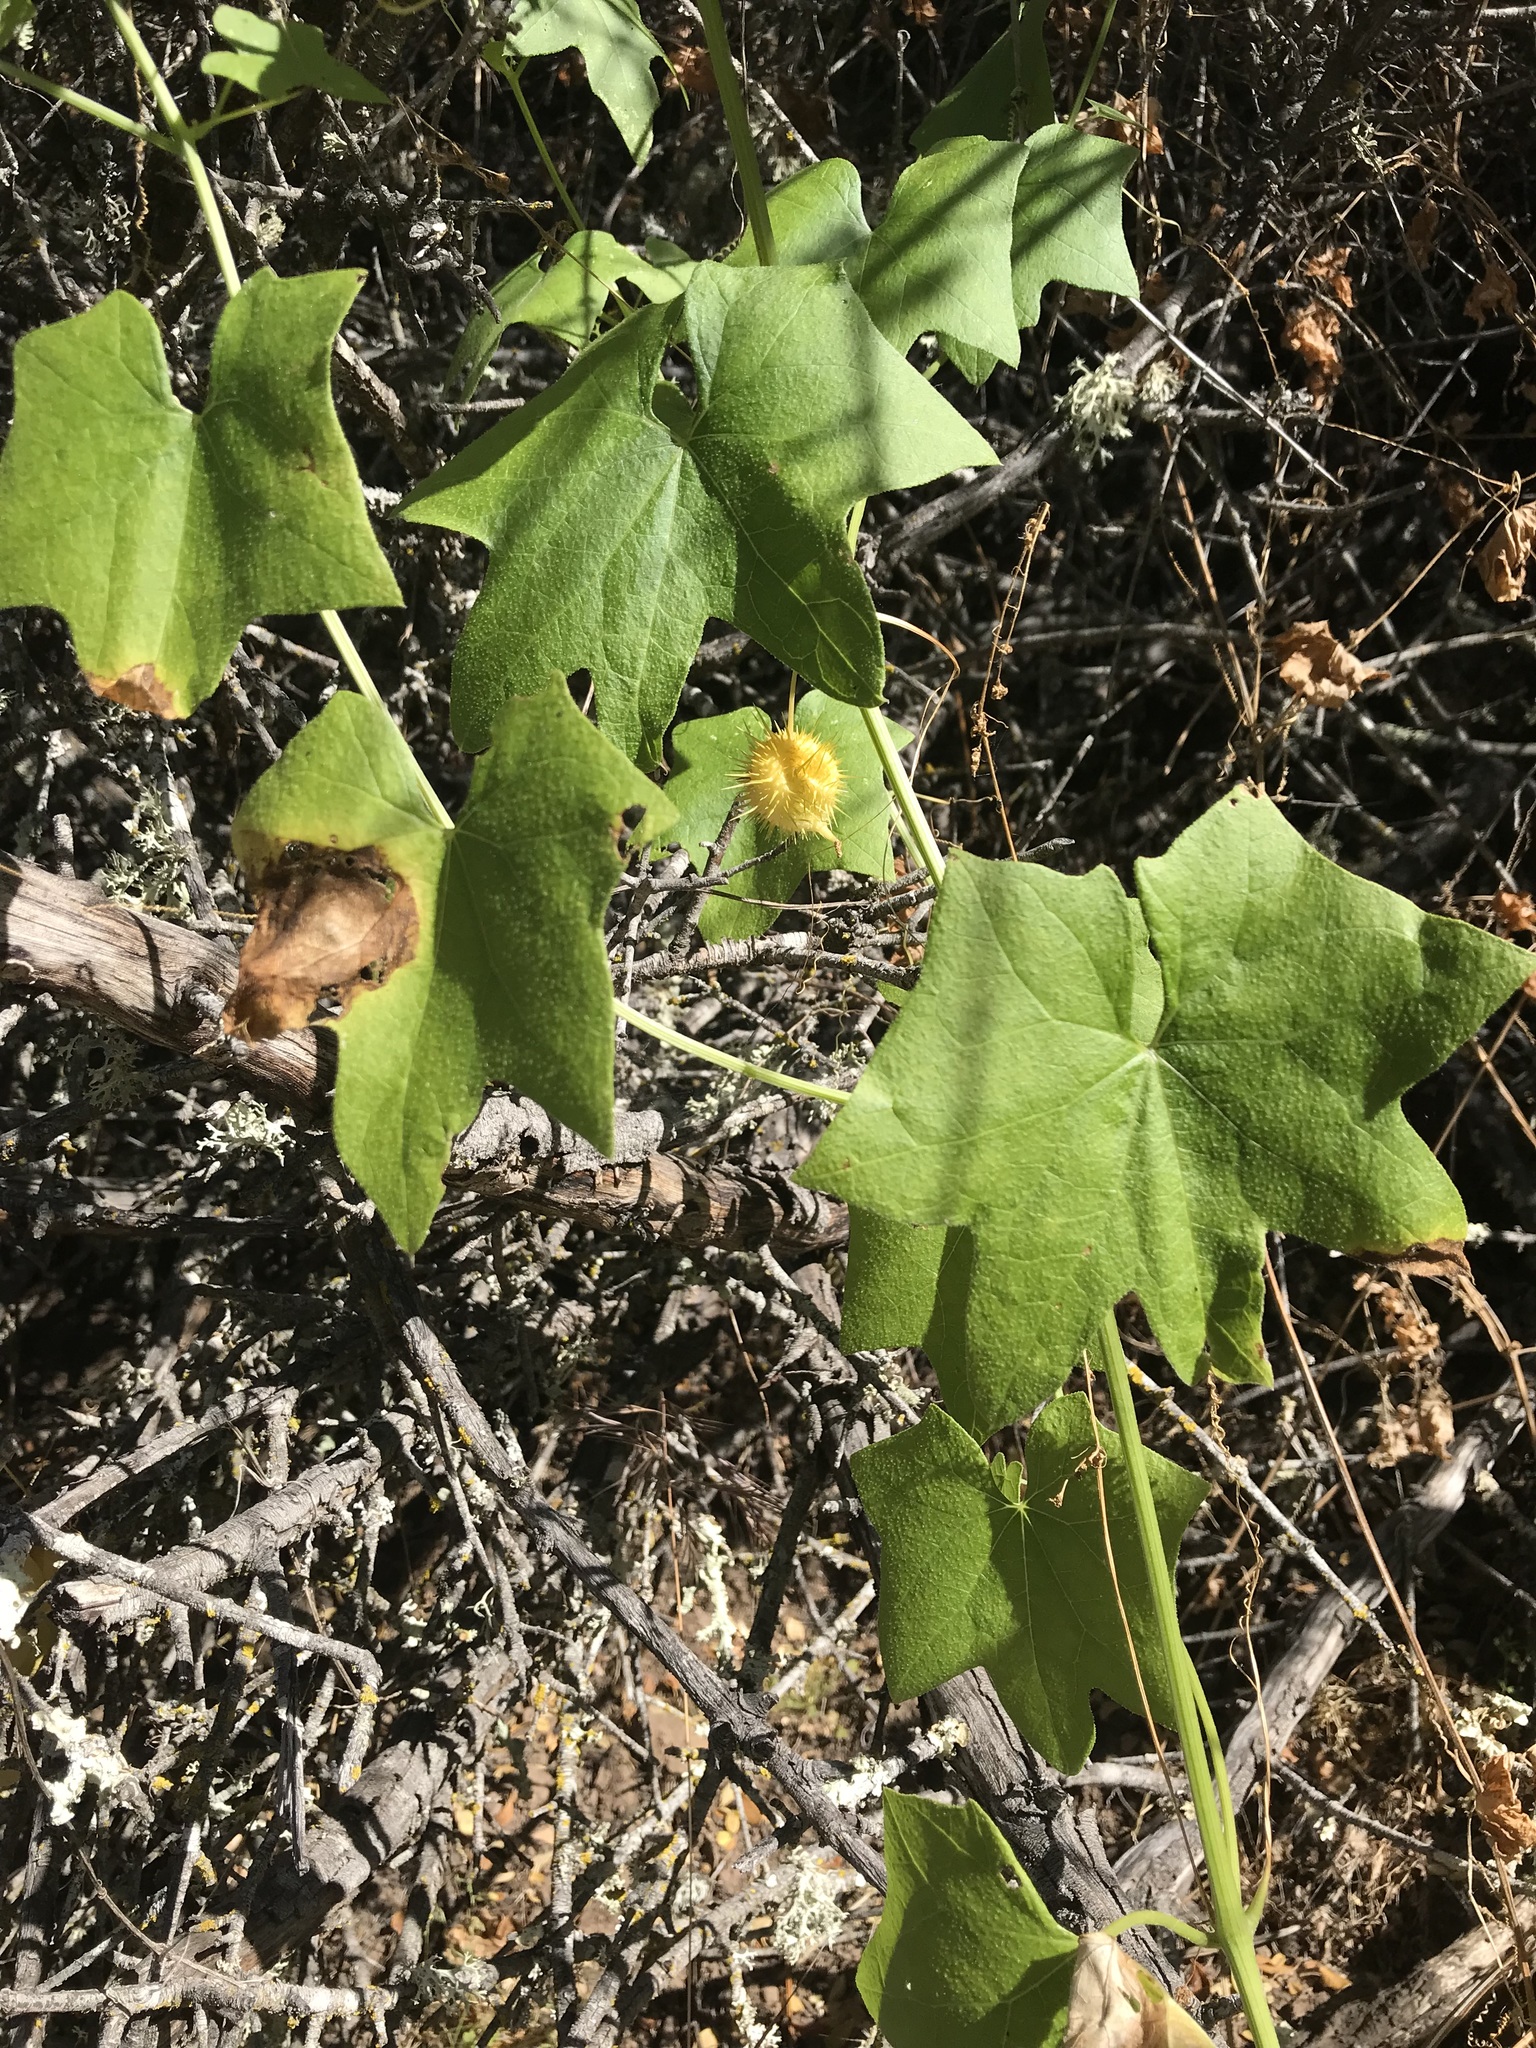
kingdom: Plantae
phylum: Tracheophyta
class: Magnoliopsida
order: Cucurbitales
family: Cucurbitaceae
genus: Marah
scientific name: Marah fabacea
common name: California manroot
